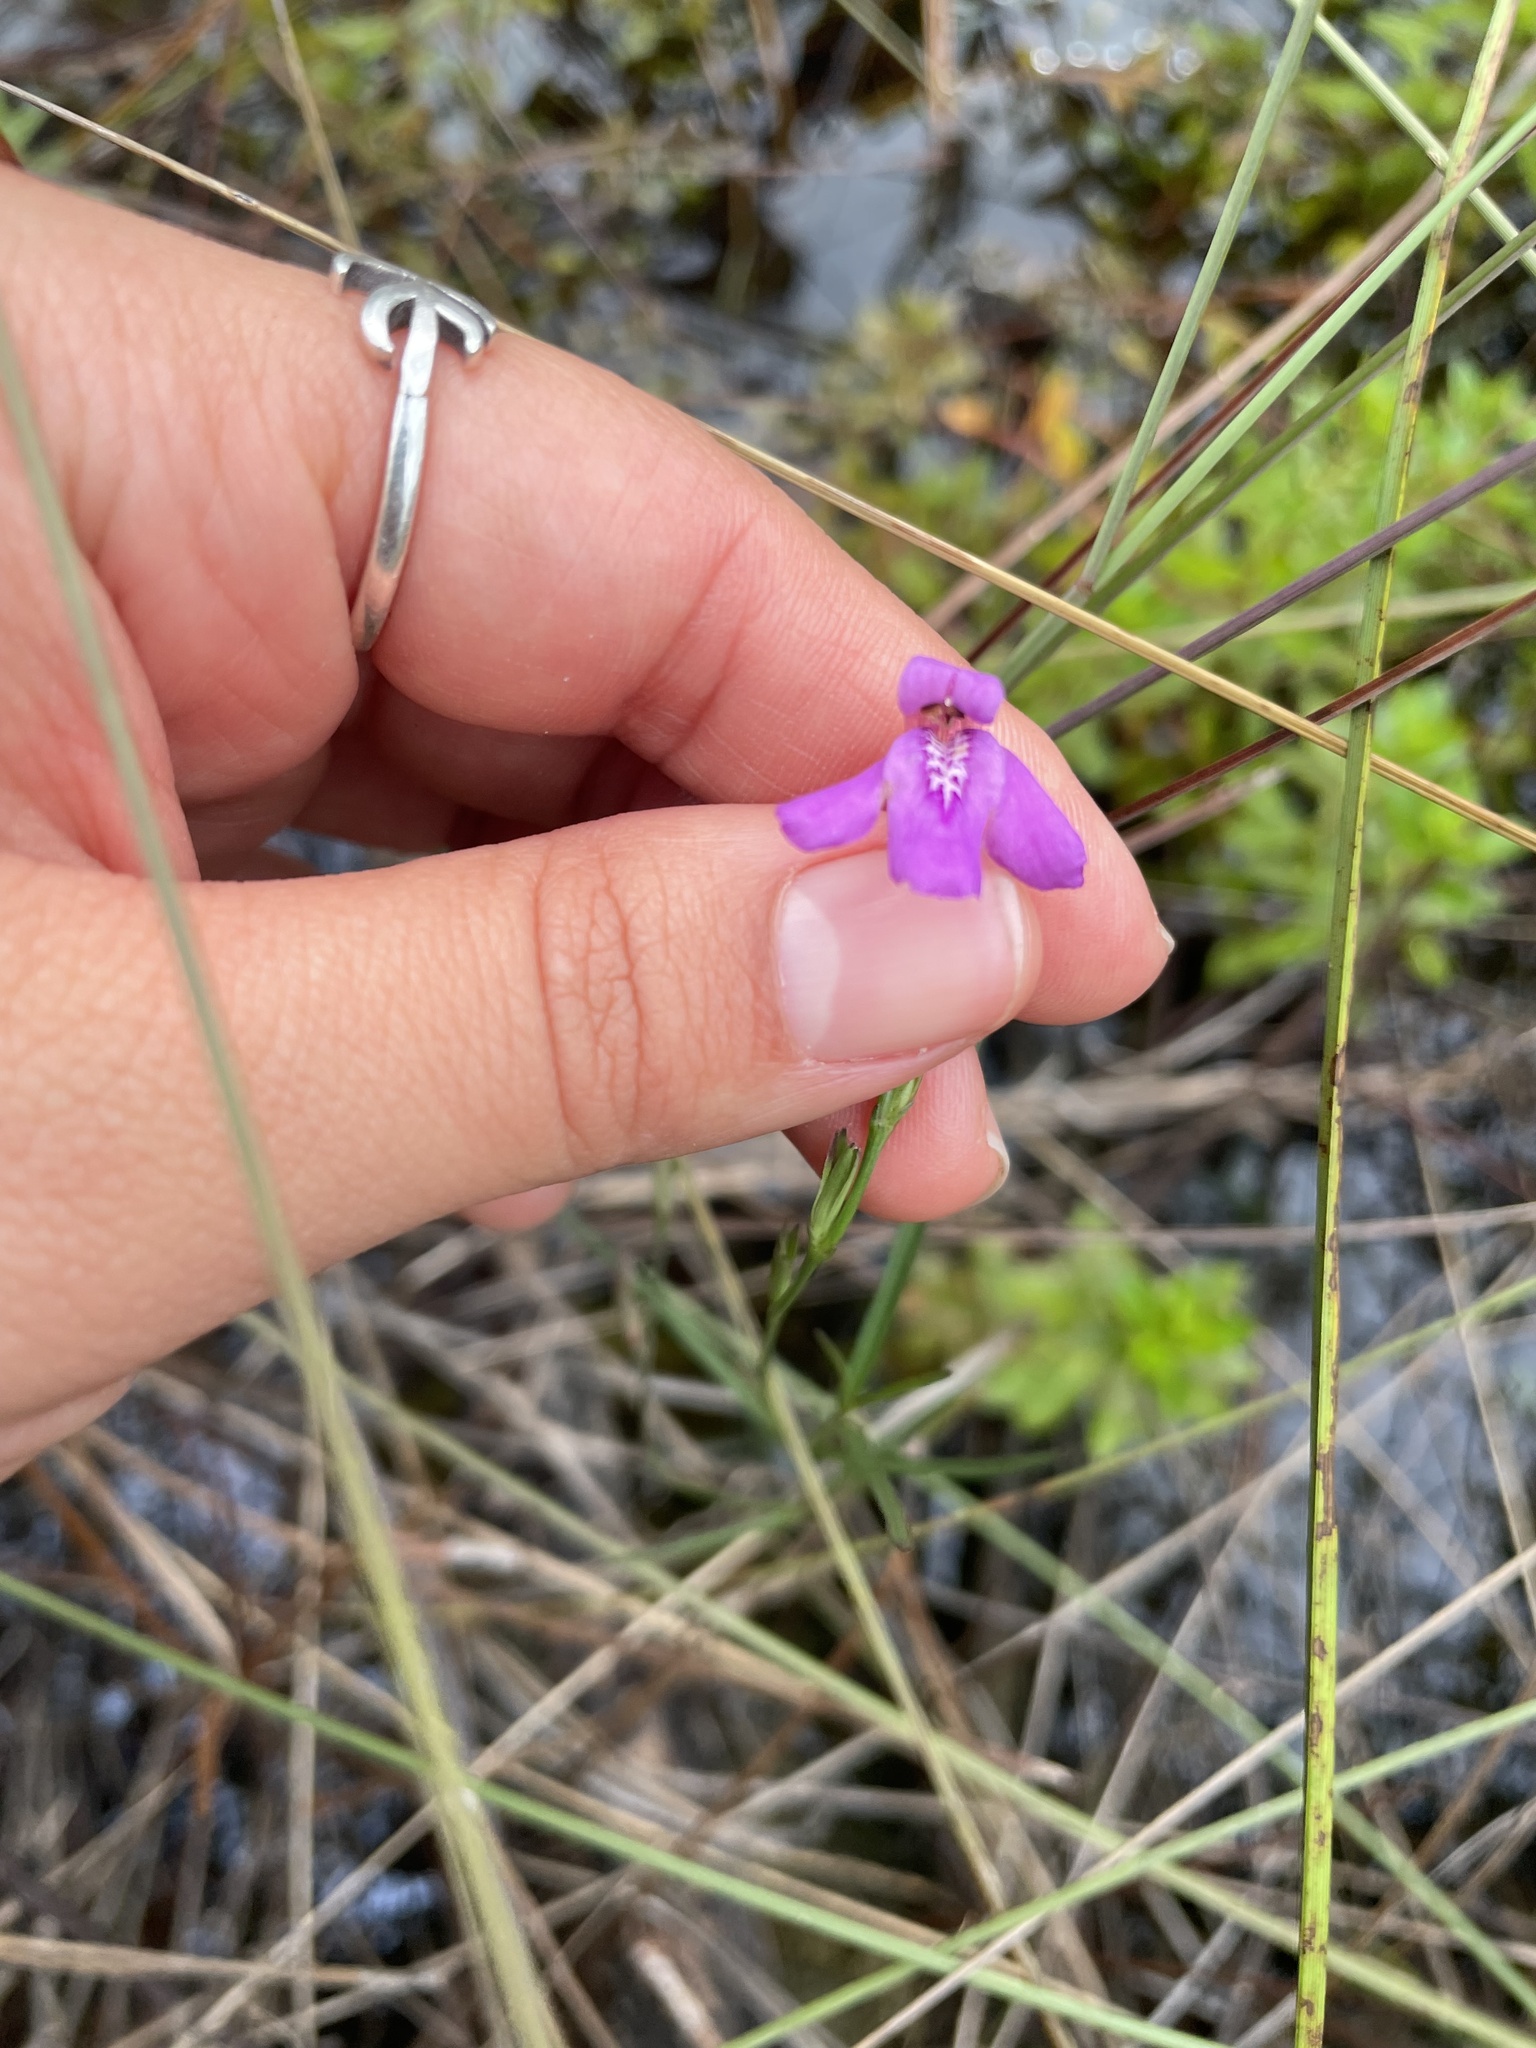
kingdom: Plantae
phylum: Tracheophyta
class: Magnoliopsida
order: Lamiales
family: Acanthaceae
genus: Dianthera
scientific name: Dianthera angusta
